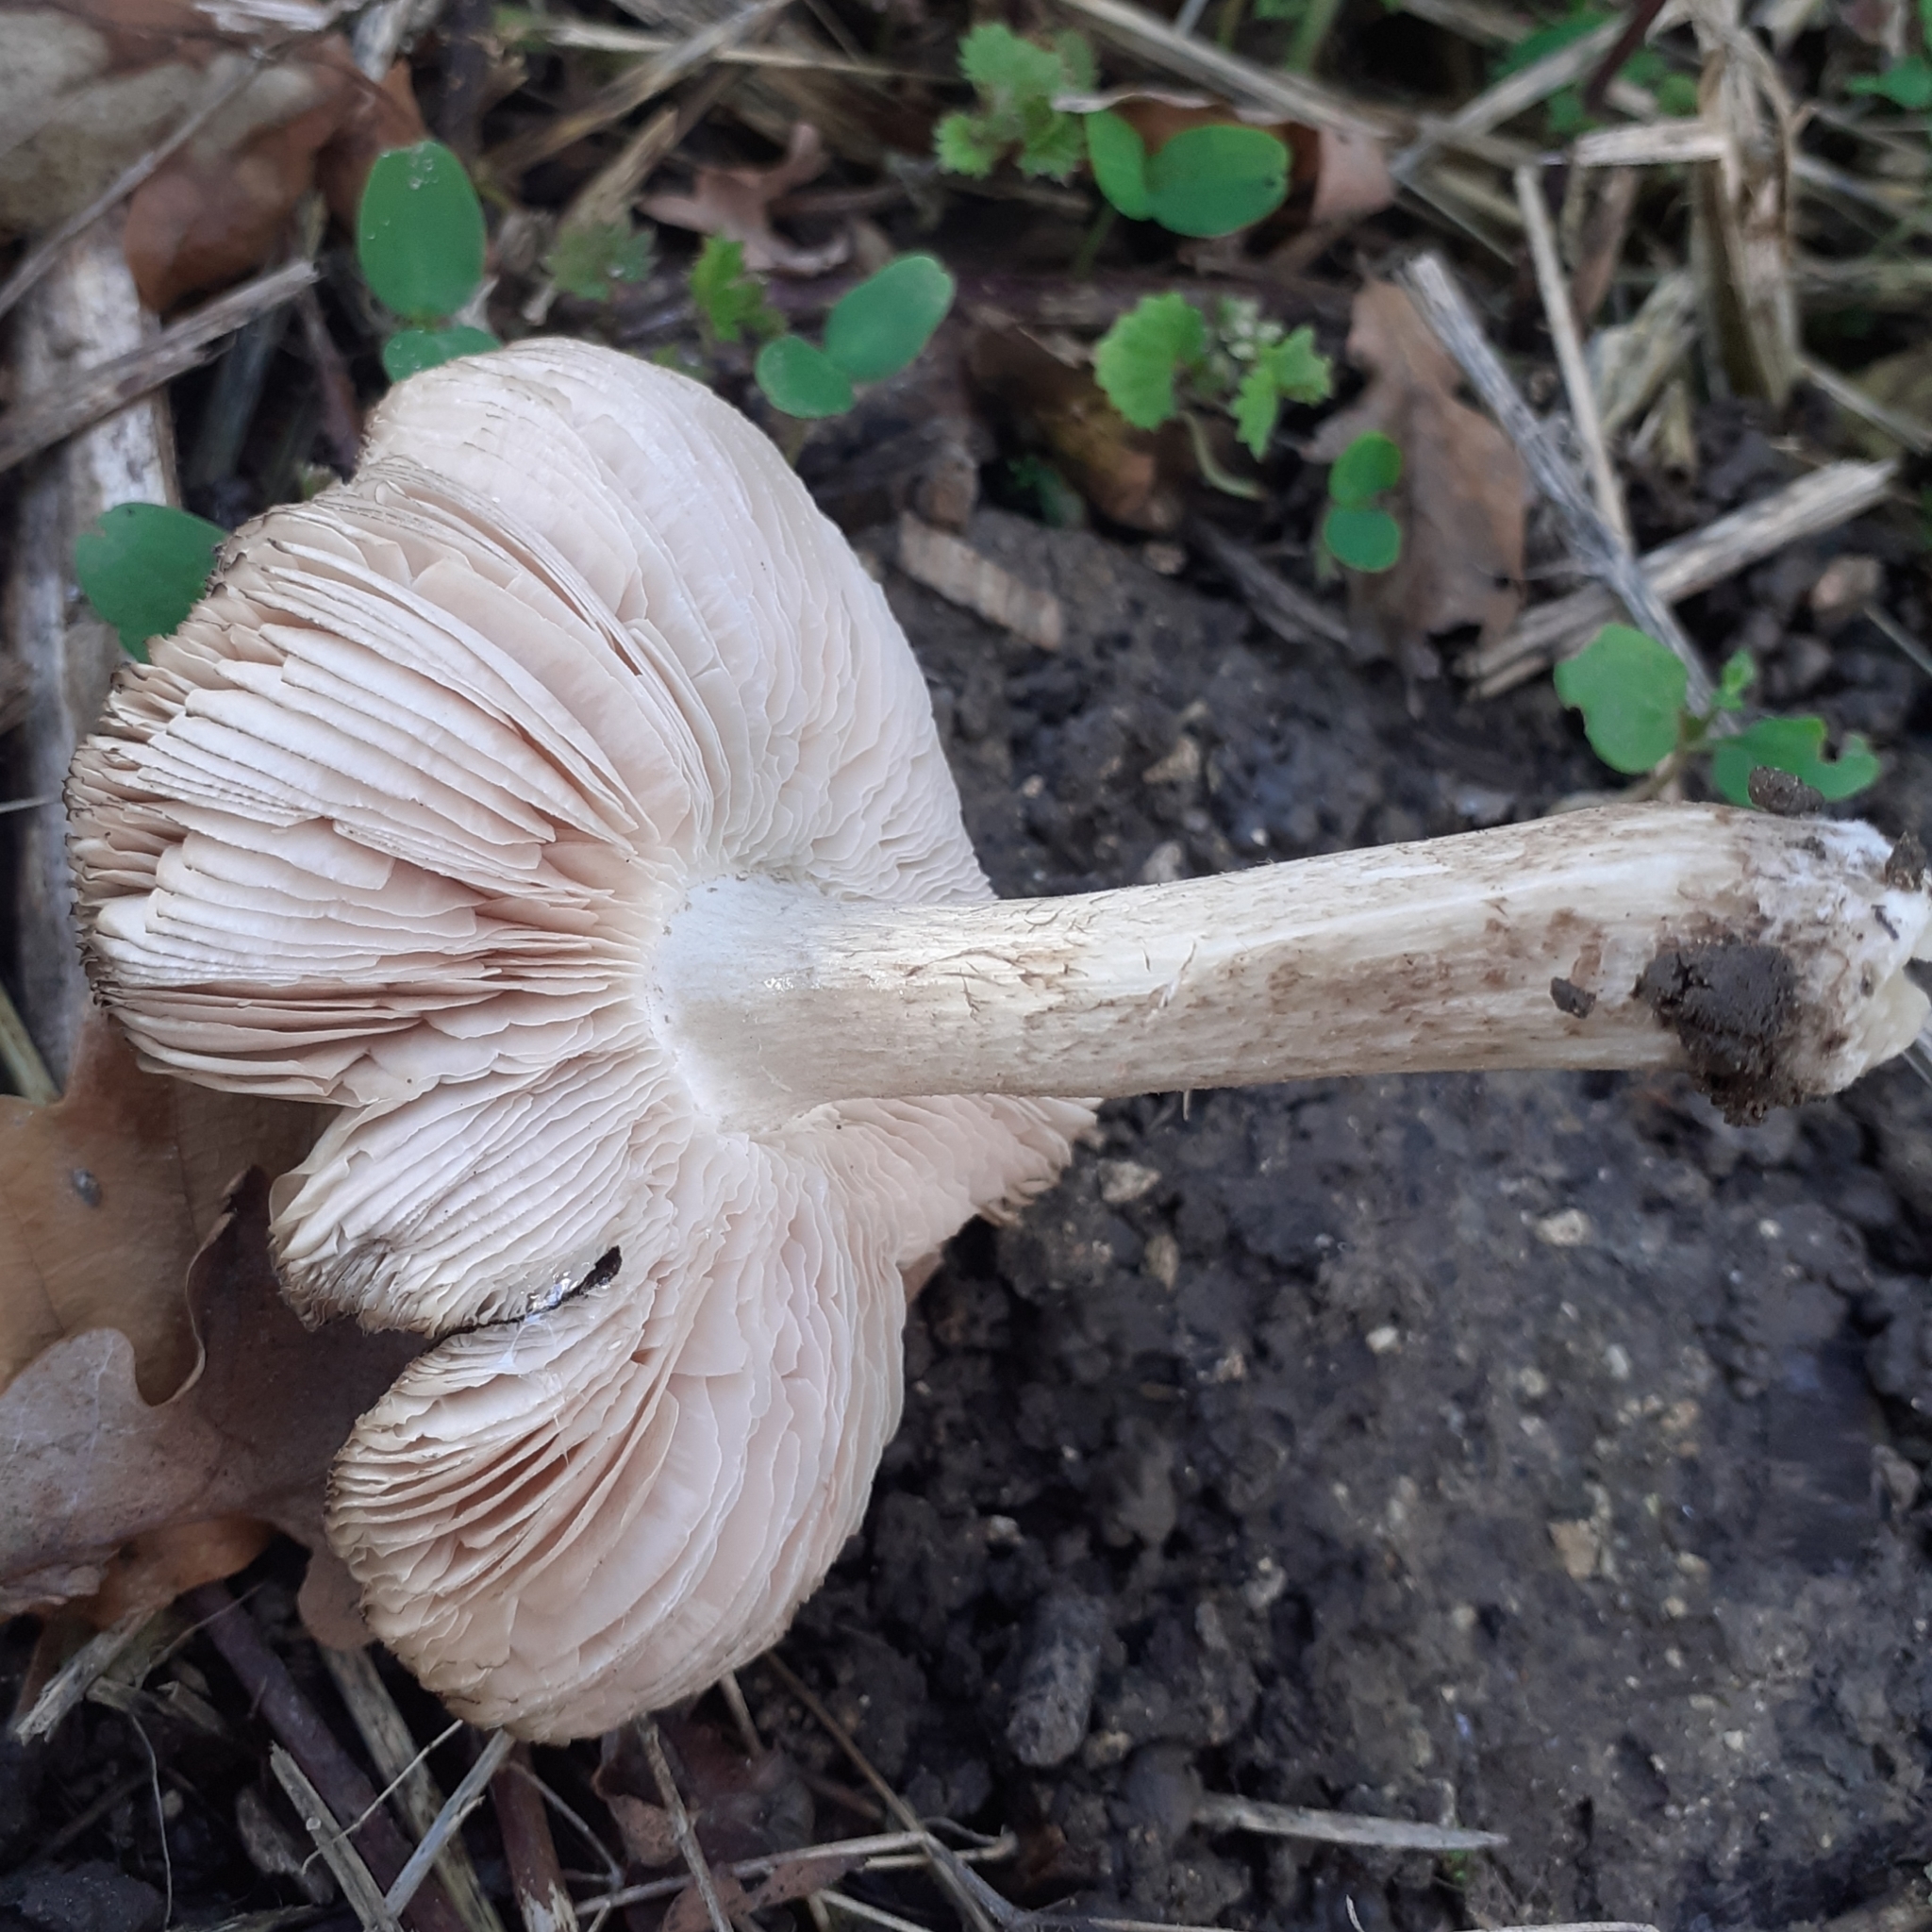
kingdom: Fungi
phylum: Basidiomycota
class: Agaricomycetes
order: Agaricales
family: Pluteaceae
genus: Pluteus
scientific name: Pluteus ephebeus
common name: Sooty shield
